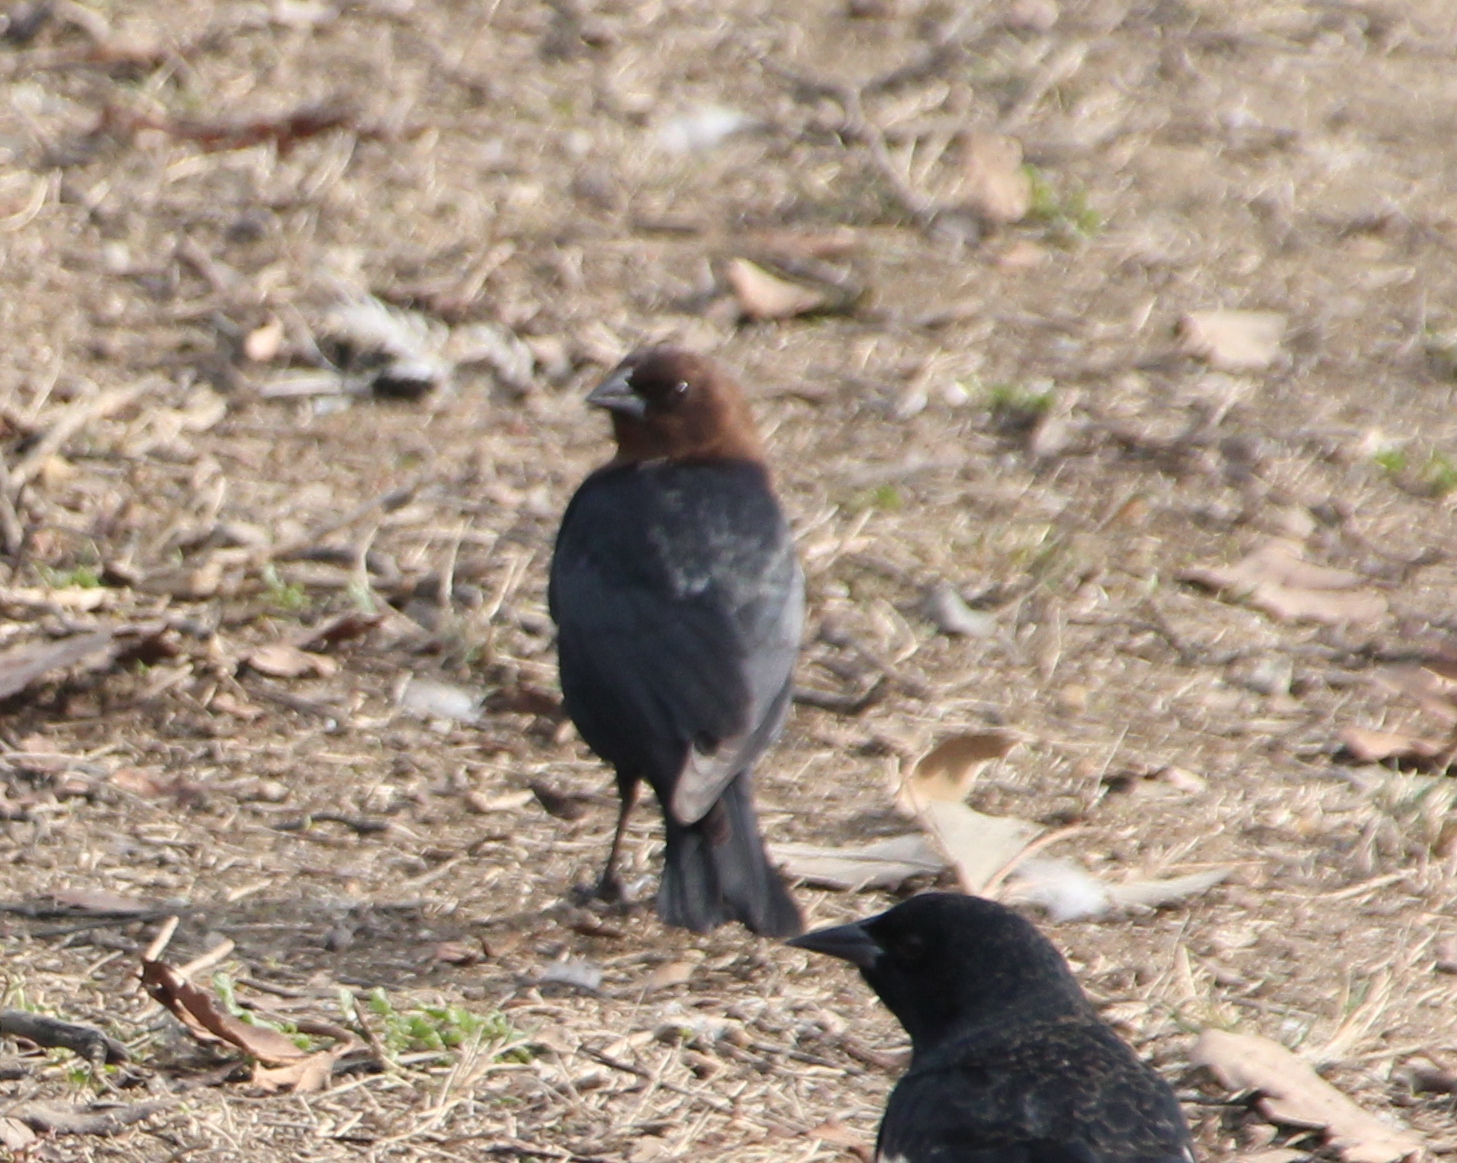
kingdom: Animalia
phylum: Chordata
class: Aves
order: Passeriformes
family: Icteridae
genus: Molothrus
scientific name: Molothrus ater
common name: Brown-headed cowbird
